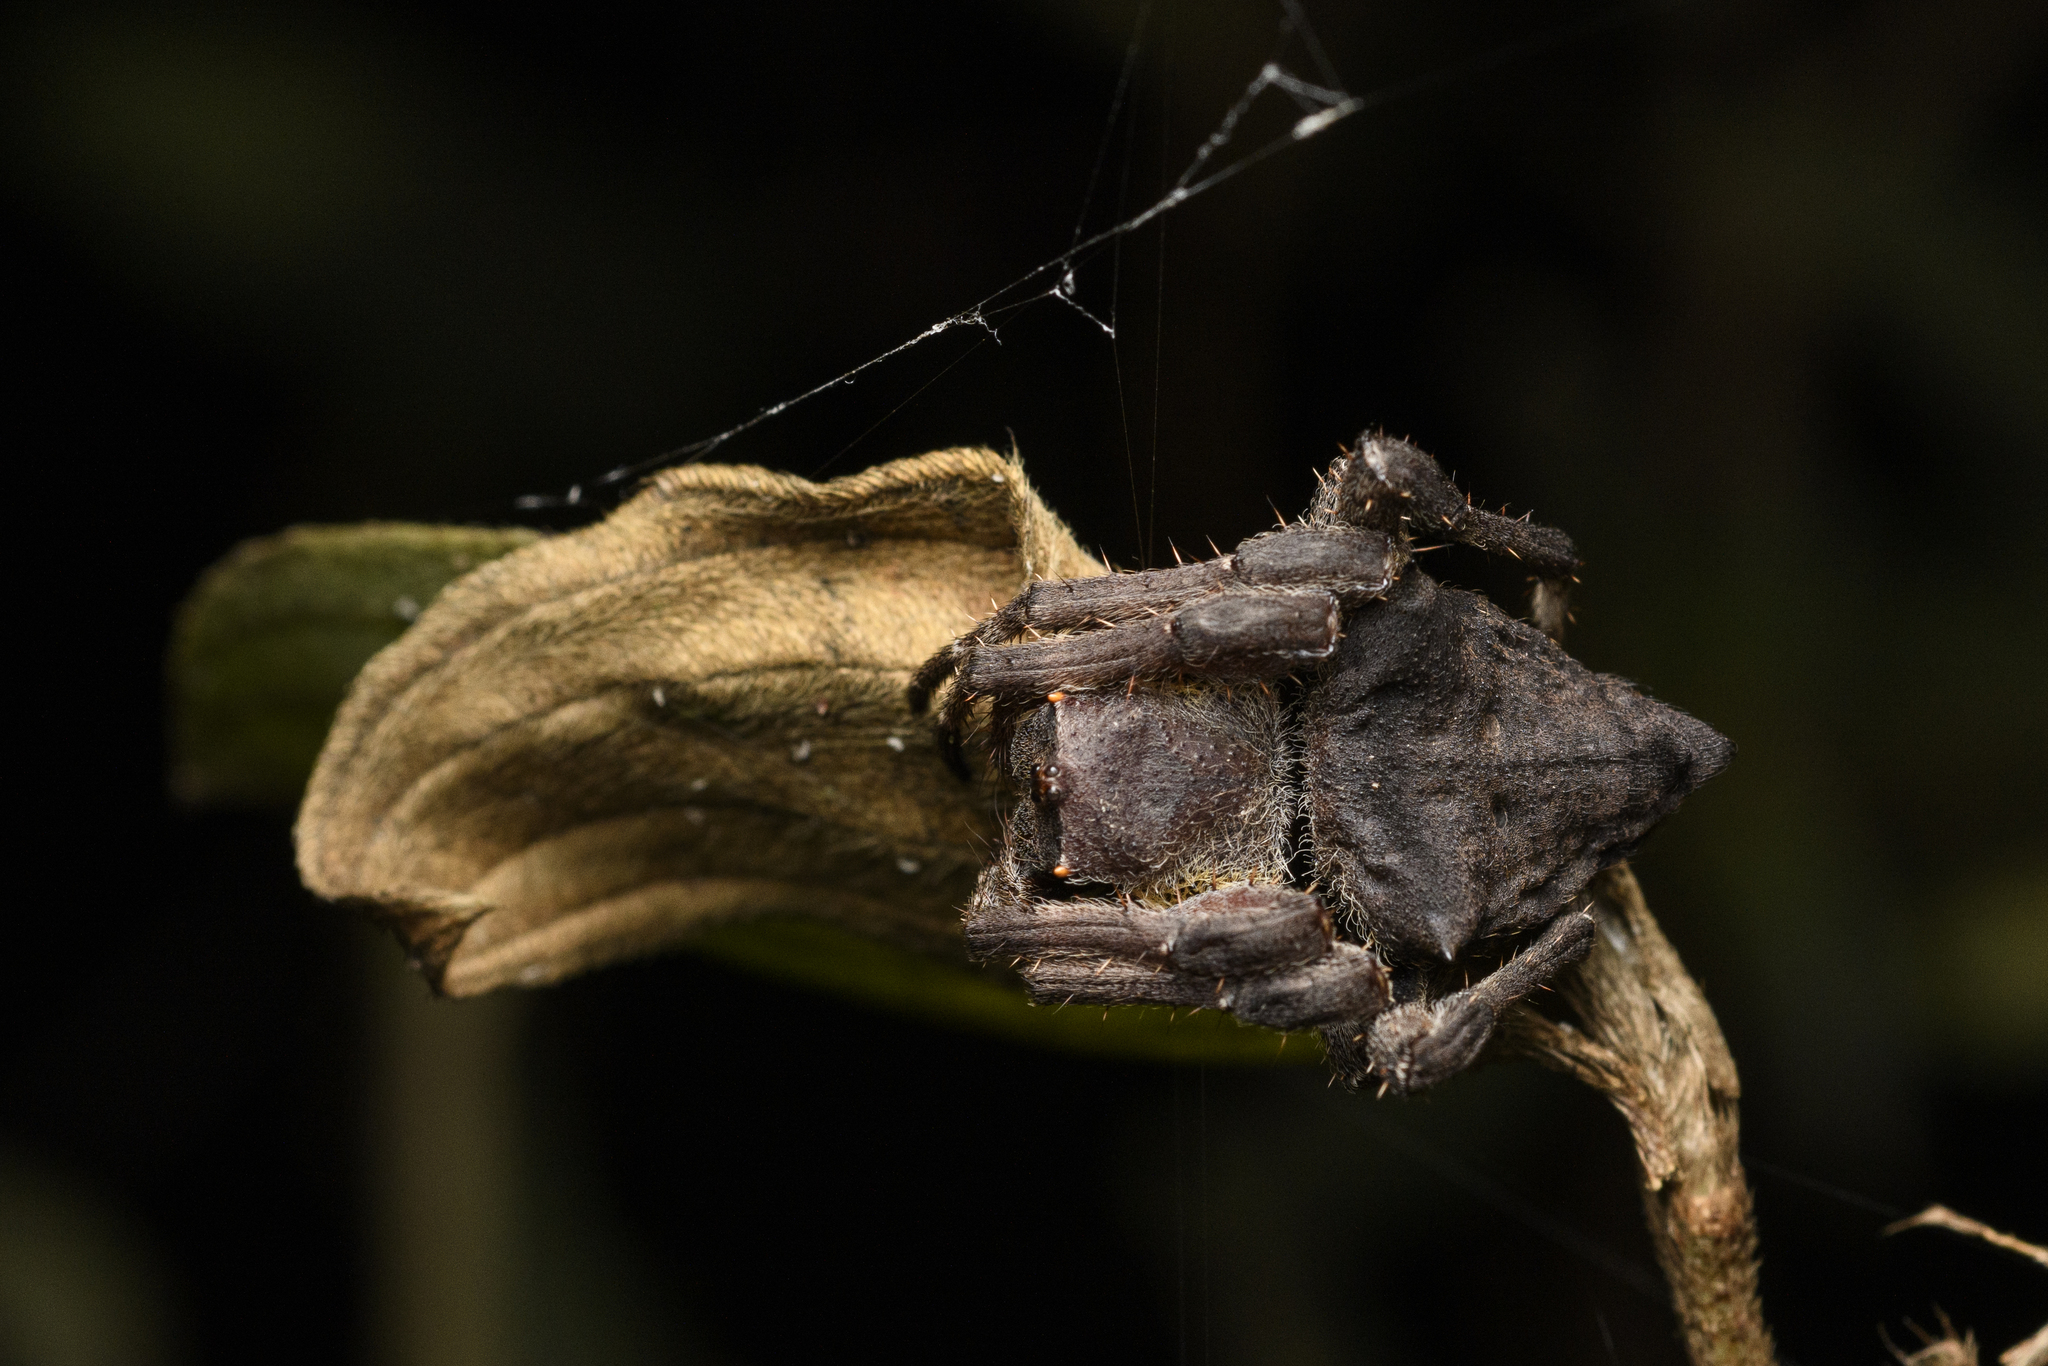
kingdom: Animalia
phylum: Arthropoda
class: Arachnida
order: Araneae
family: Araneidae
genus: Parawixia
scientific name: Parawixia dehaani
